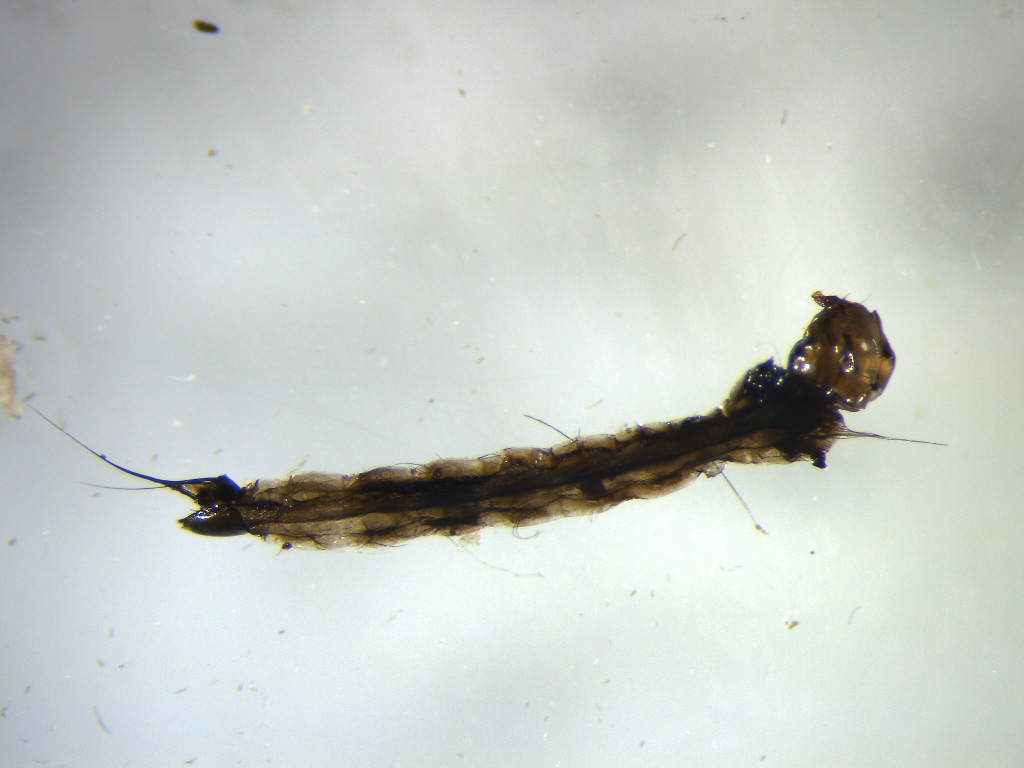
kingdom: Animalia
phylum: Arthropoda
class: Insecta
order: Diptera
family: Culicidae
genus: Aedes
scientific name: Aedes notoscriptus
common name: Australian backyard mosquito
